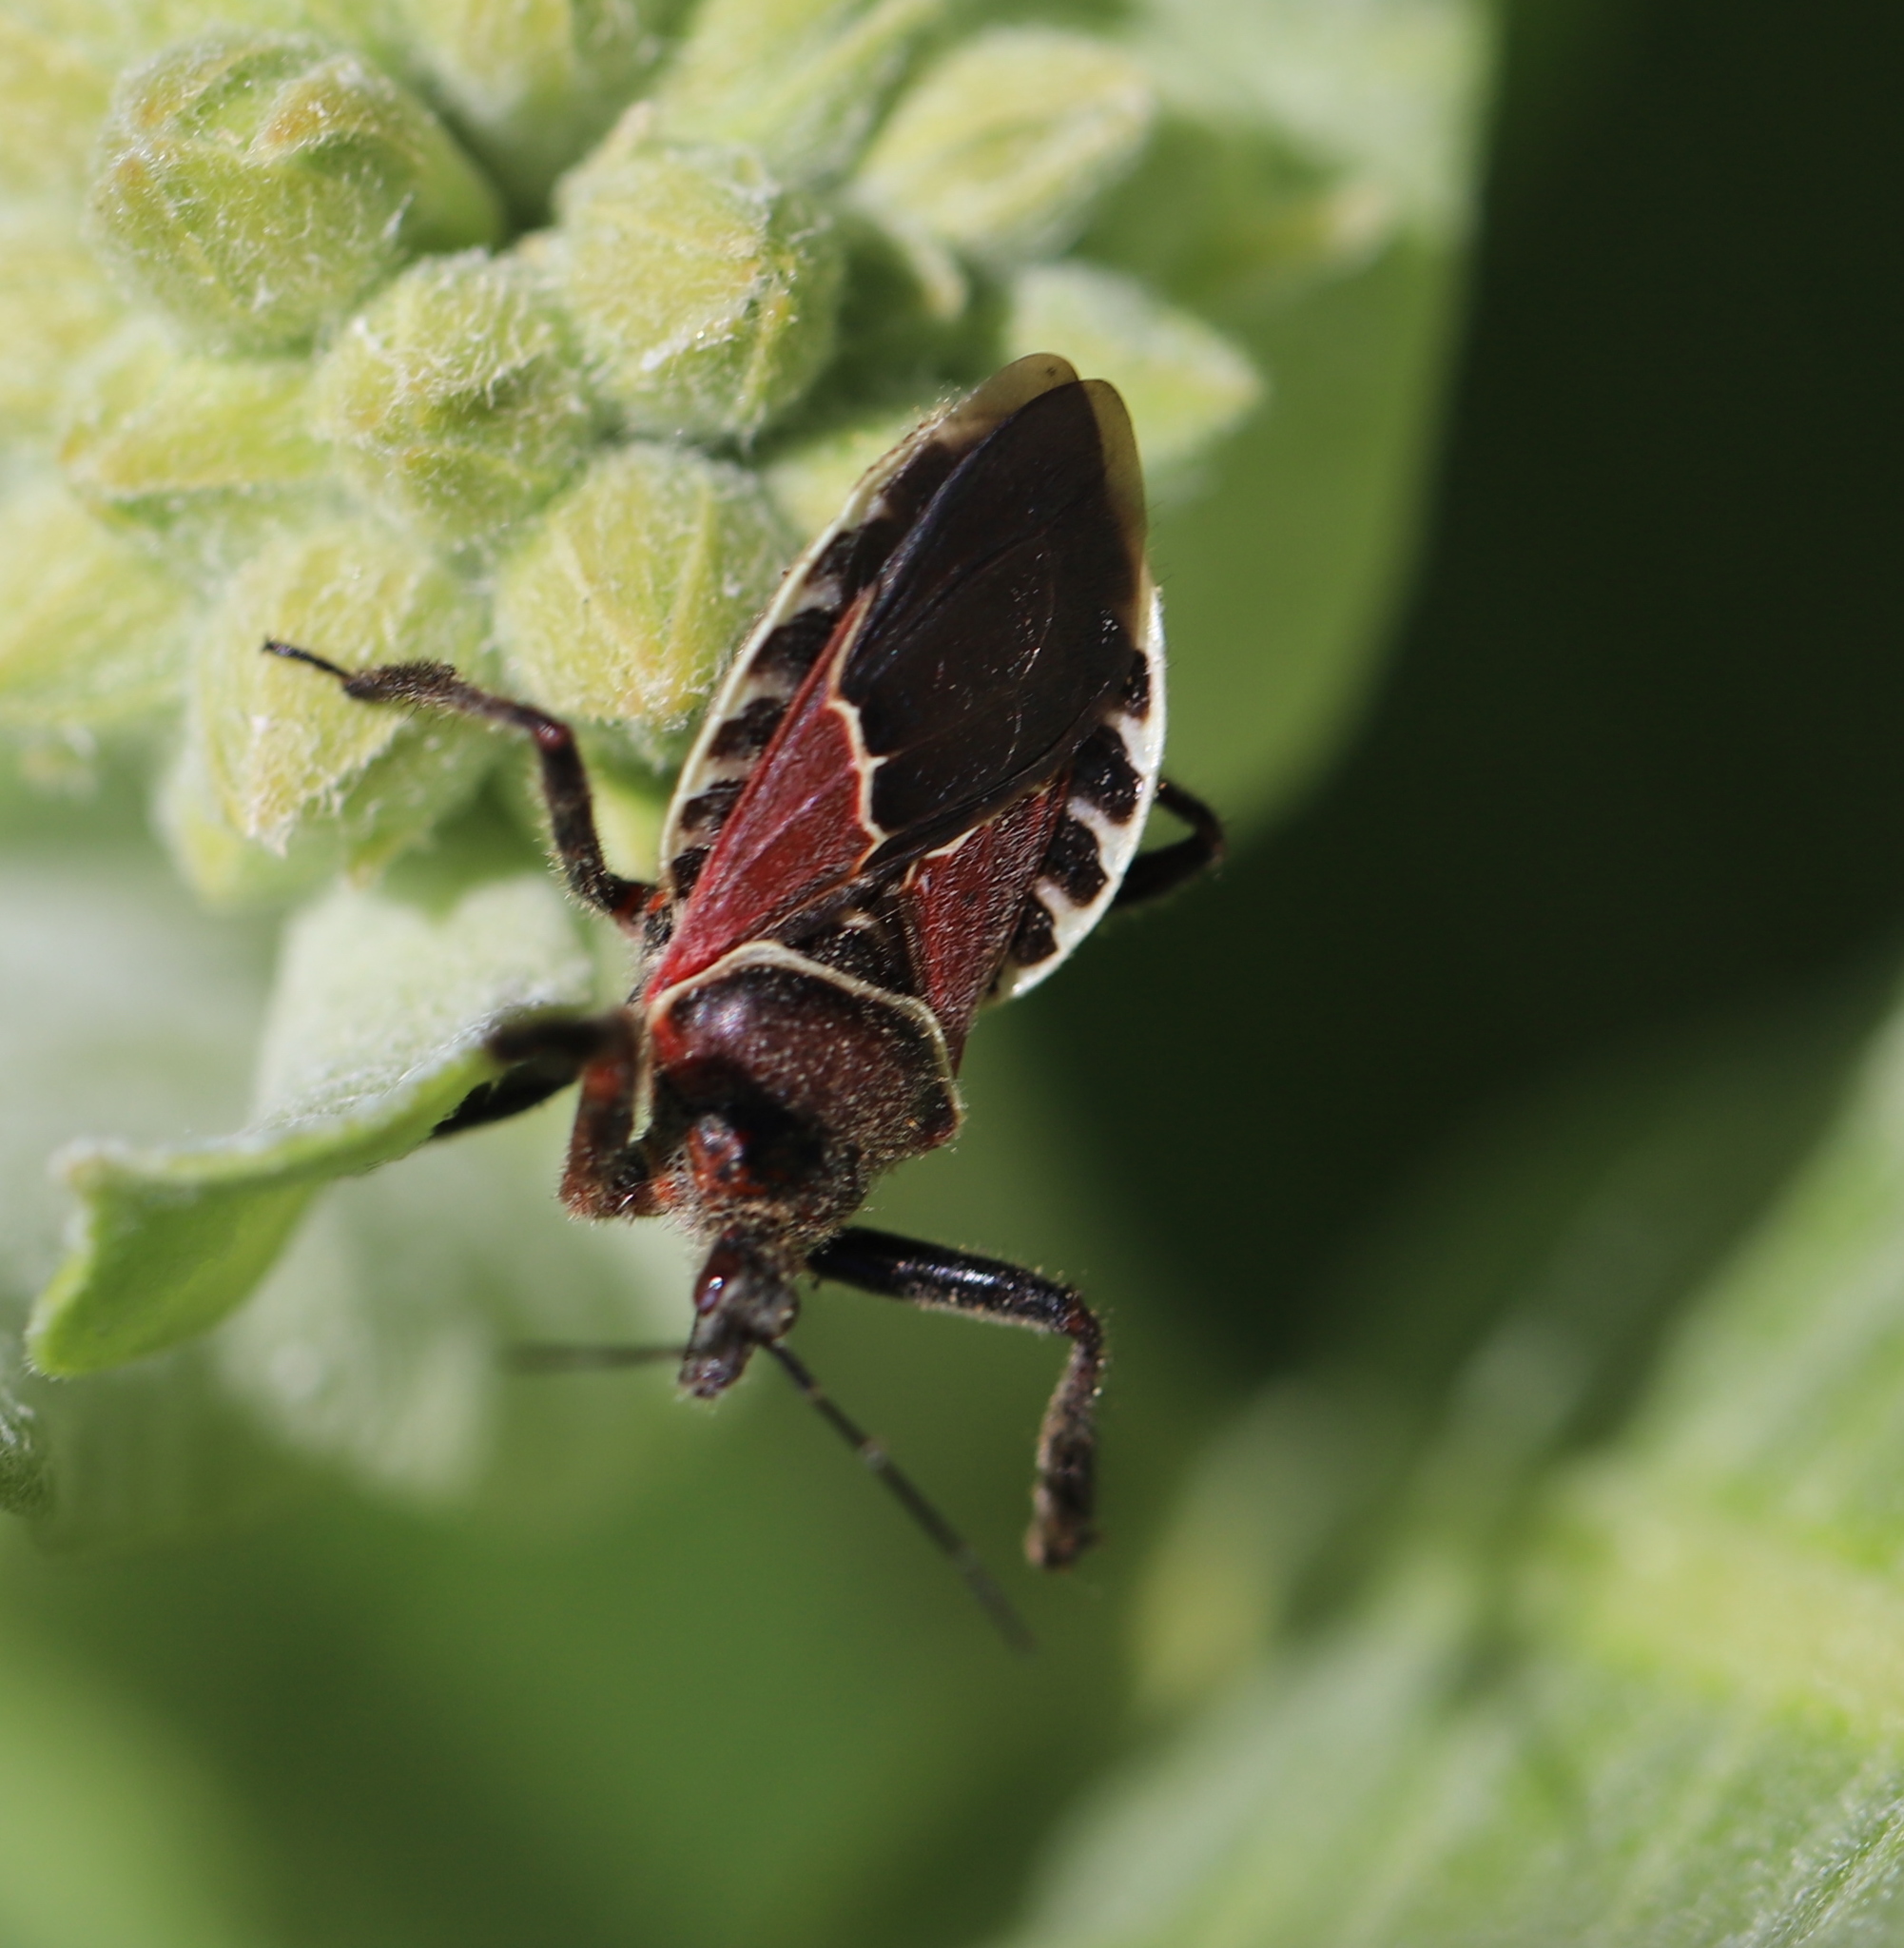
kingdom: Animalia
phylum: Arthropoda
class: Insecta
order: Hemiptera
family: Reduviidae
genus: Apiomerus
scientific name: Apiomerus spissipes
